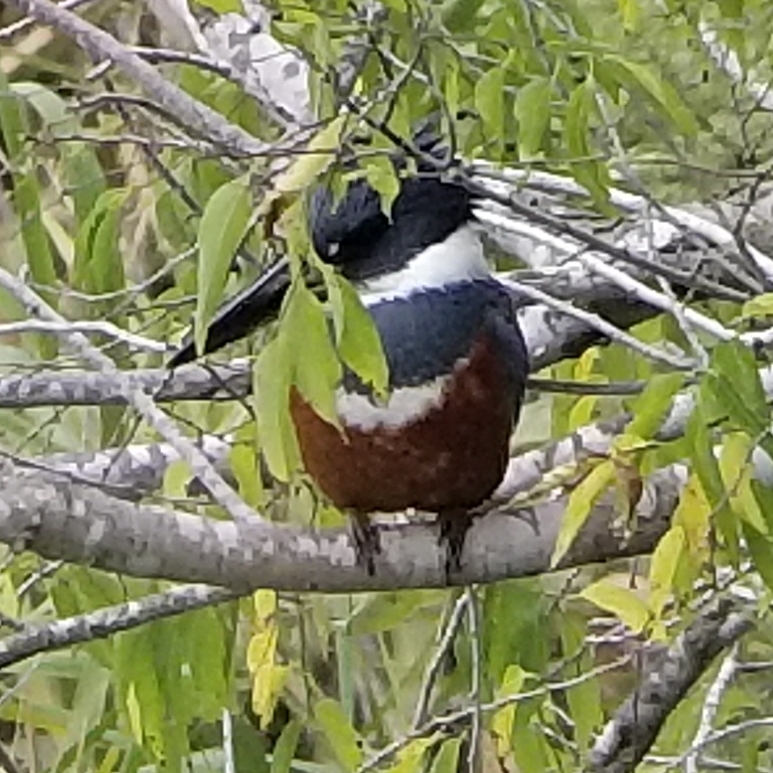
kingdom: Animalia
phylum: Chordata
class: Aves
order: Coraciiformes
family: Alcedinidae
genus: Megaceryle
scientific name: Megaceryle torquata
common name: Ringed kingfisher
